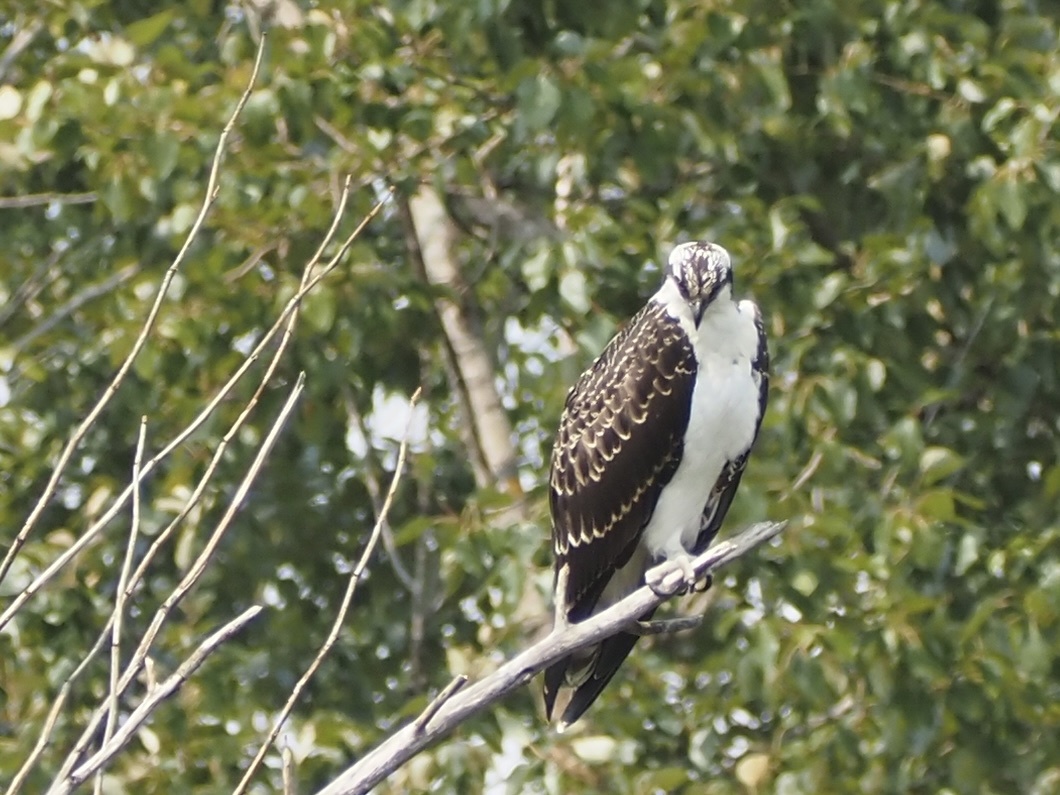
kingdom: Animalia
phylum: Chordata
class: Aves
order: Accipitriformes
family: Pandionidae
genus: Pandion
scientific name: Pandion haliaetus
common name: Osprey
